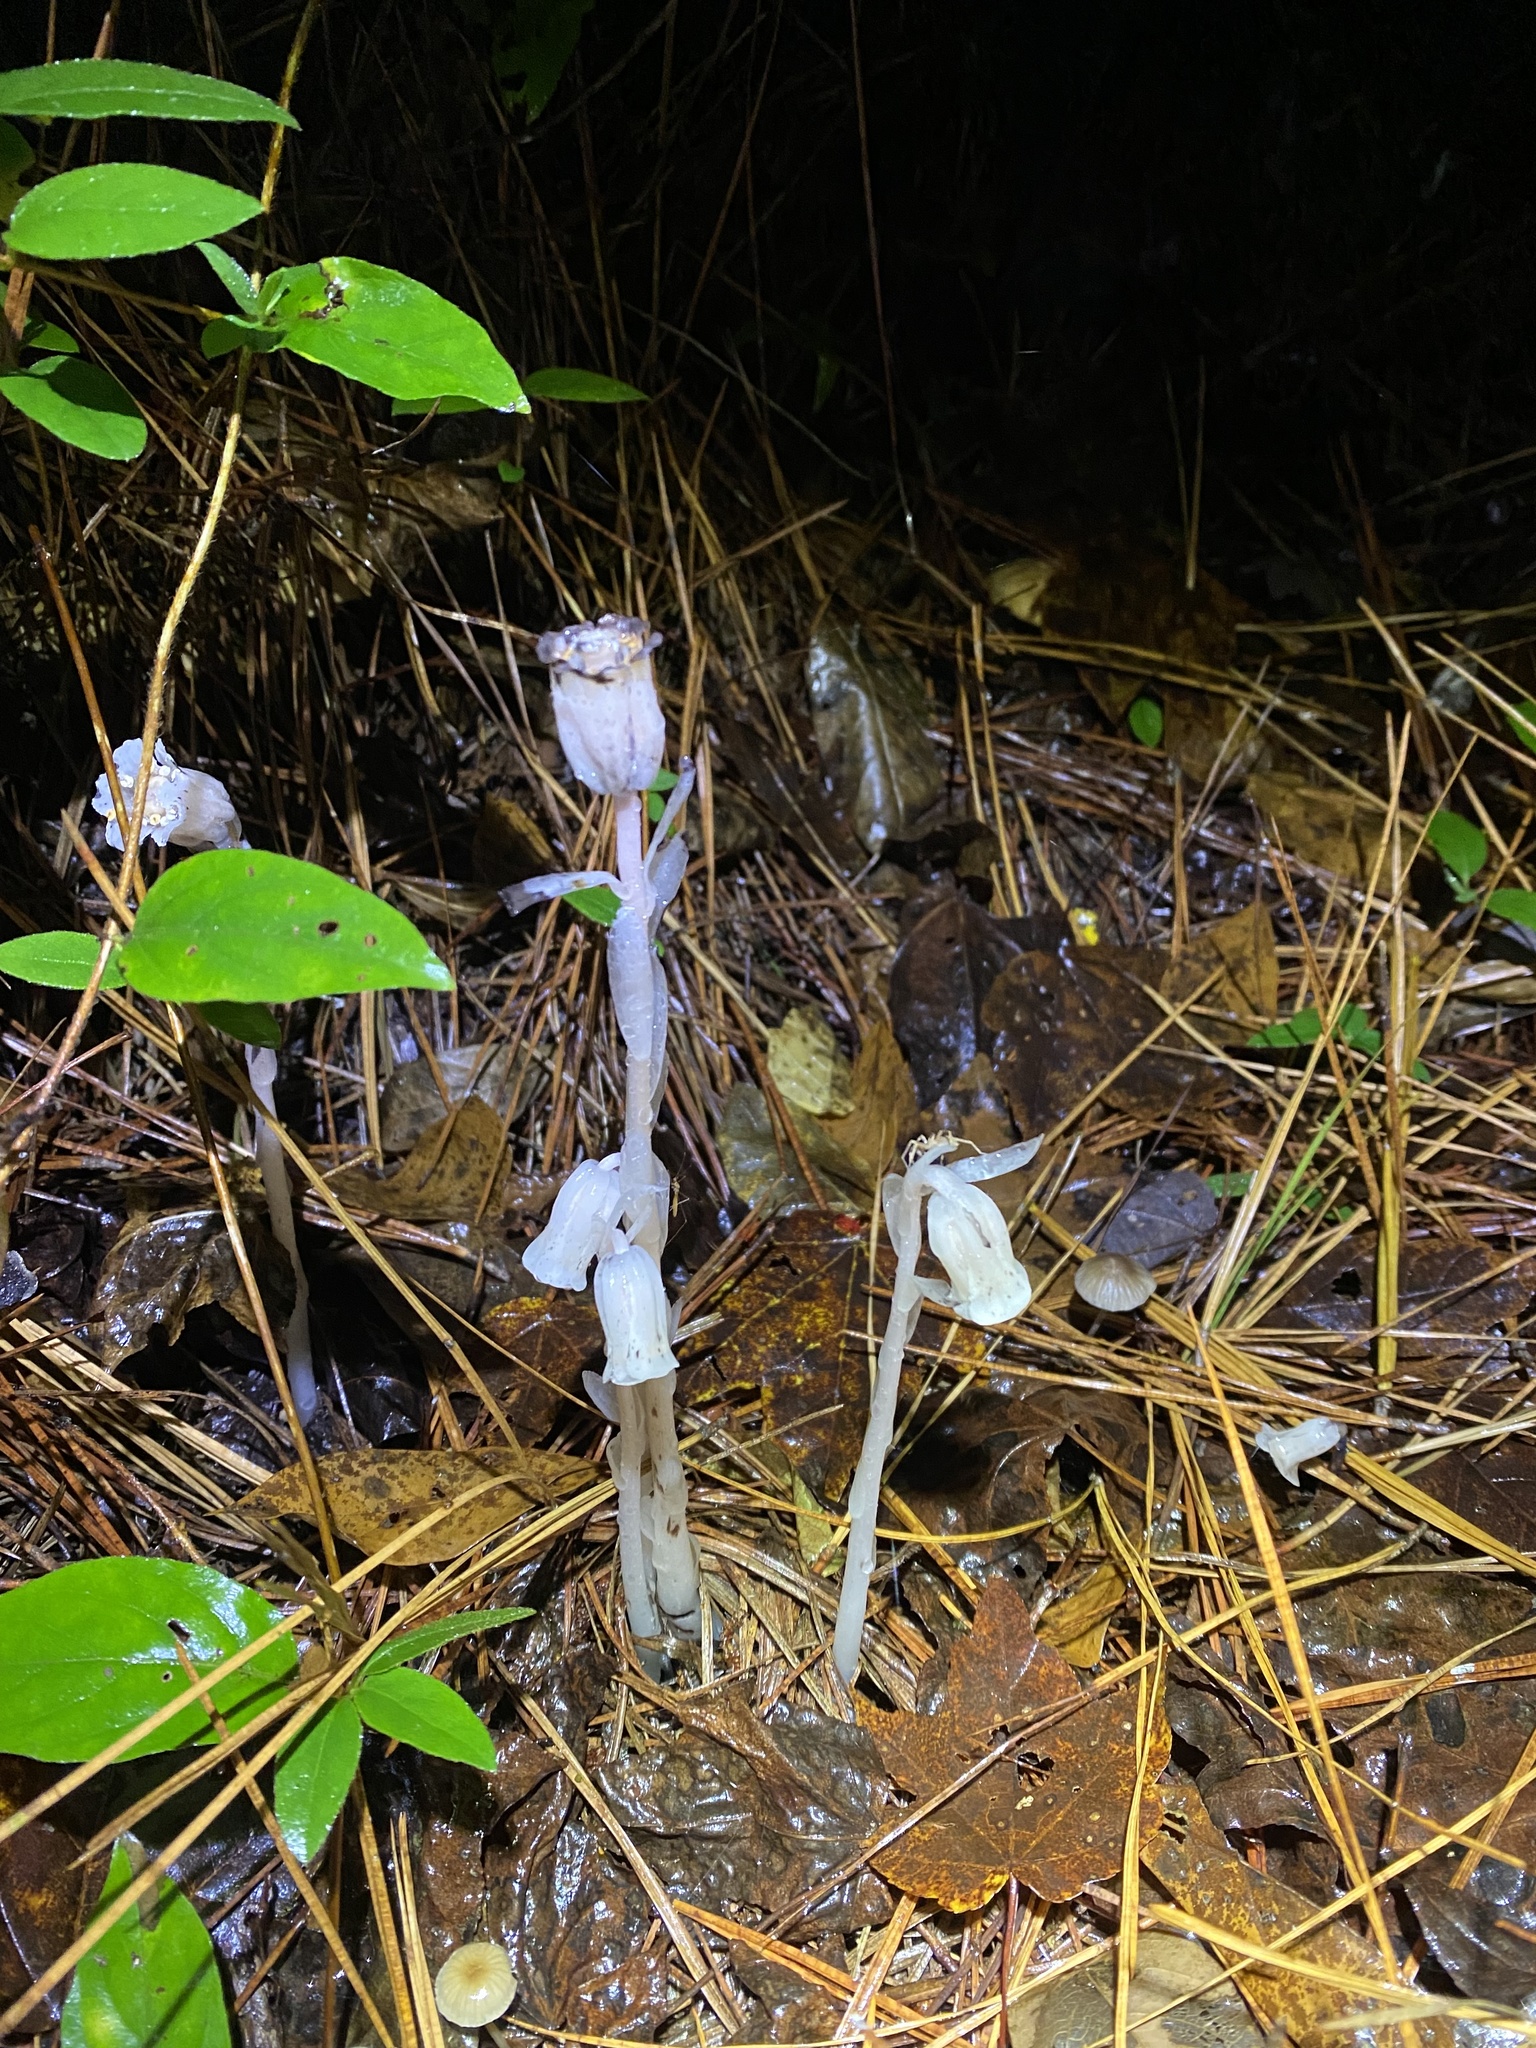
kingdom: Plantae
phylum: Tracheophyta
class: Magnoliopsida
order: Ericales
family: Ericaceae
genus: Monotropa
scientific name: Monotropa uniflora
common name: Convulsion root
